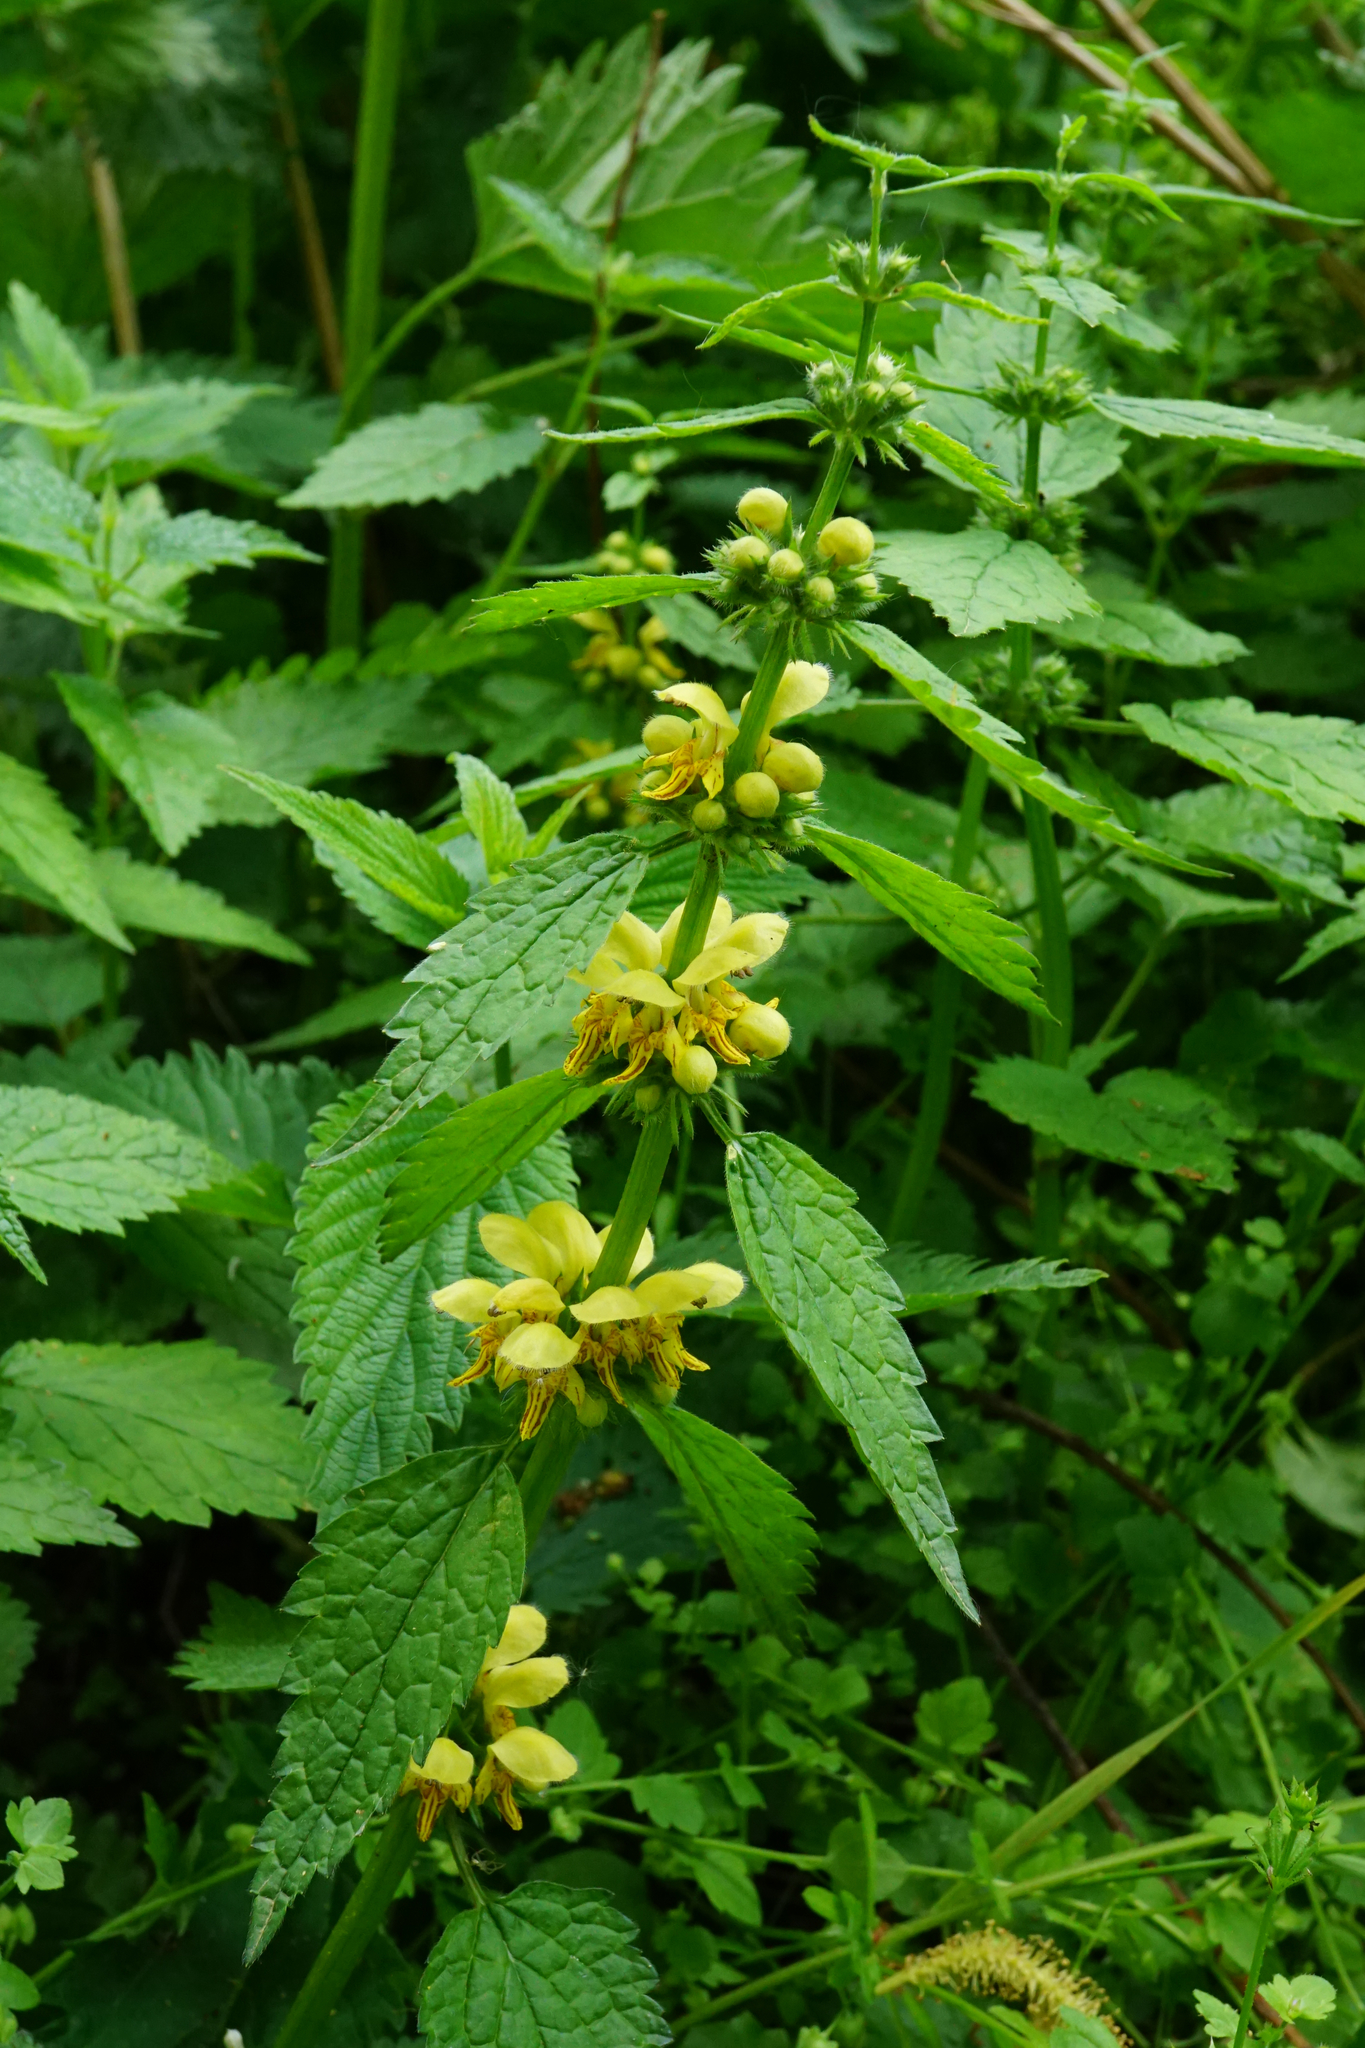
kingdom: Plantae
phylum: Tracheophyta
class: Magnoliopsida
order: Lamiales
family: Lamiaceae
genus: Lamium
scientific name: Lamium galeobdolon
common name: Yellow archangel
